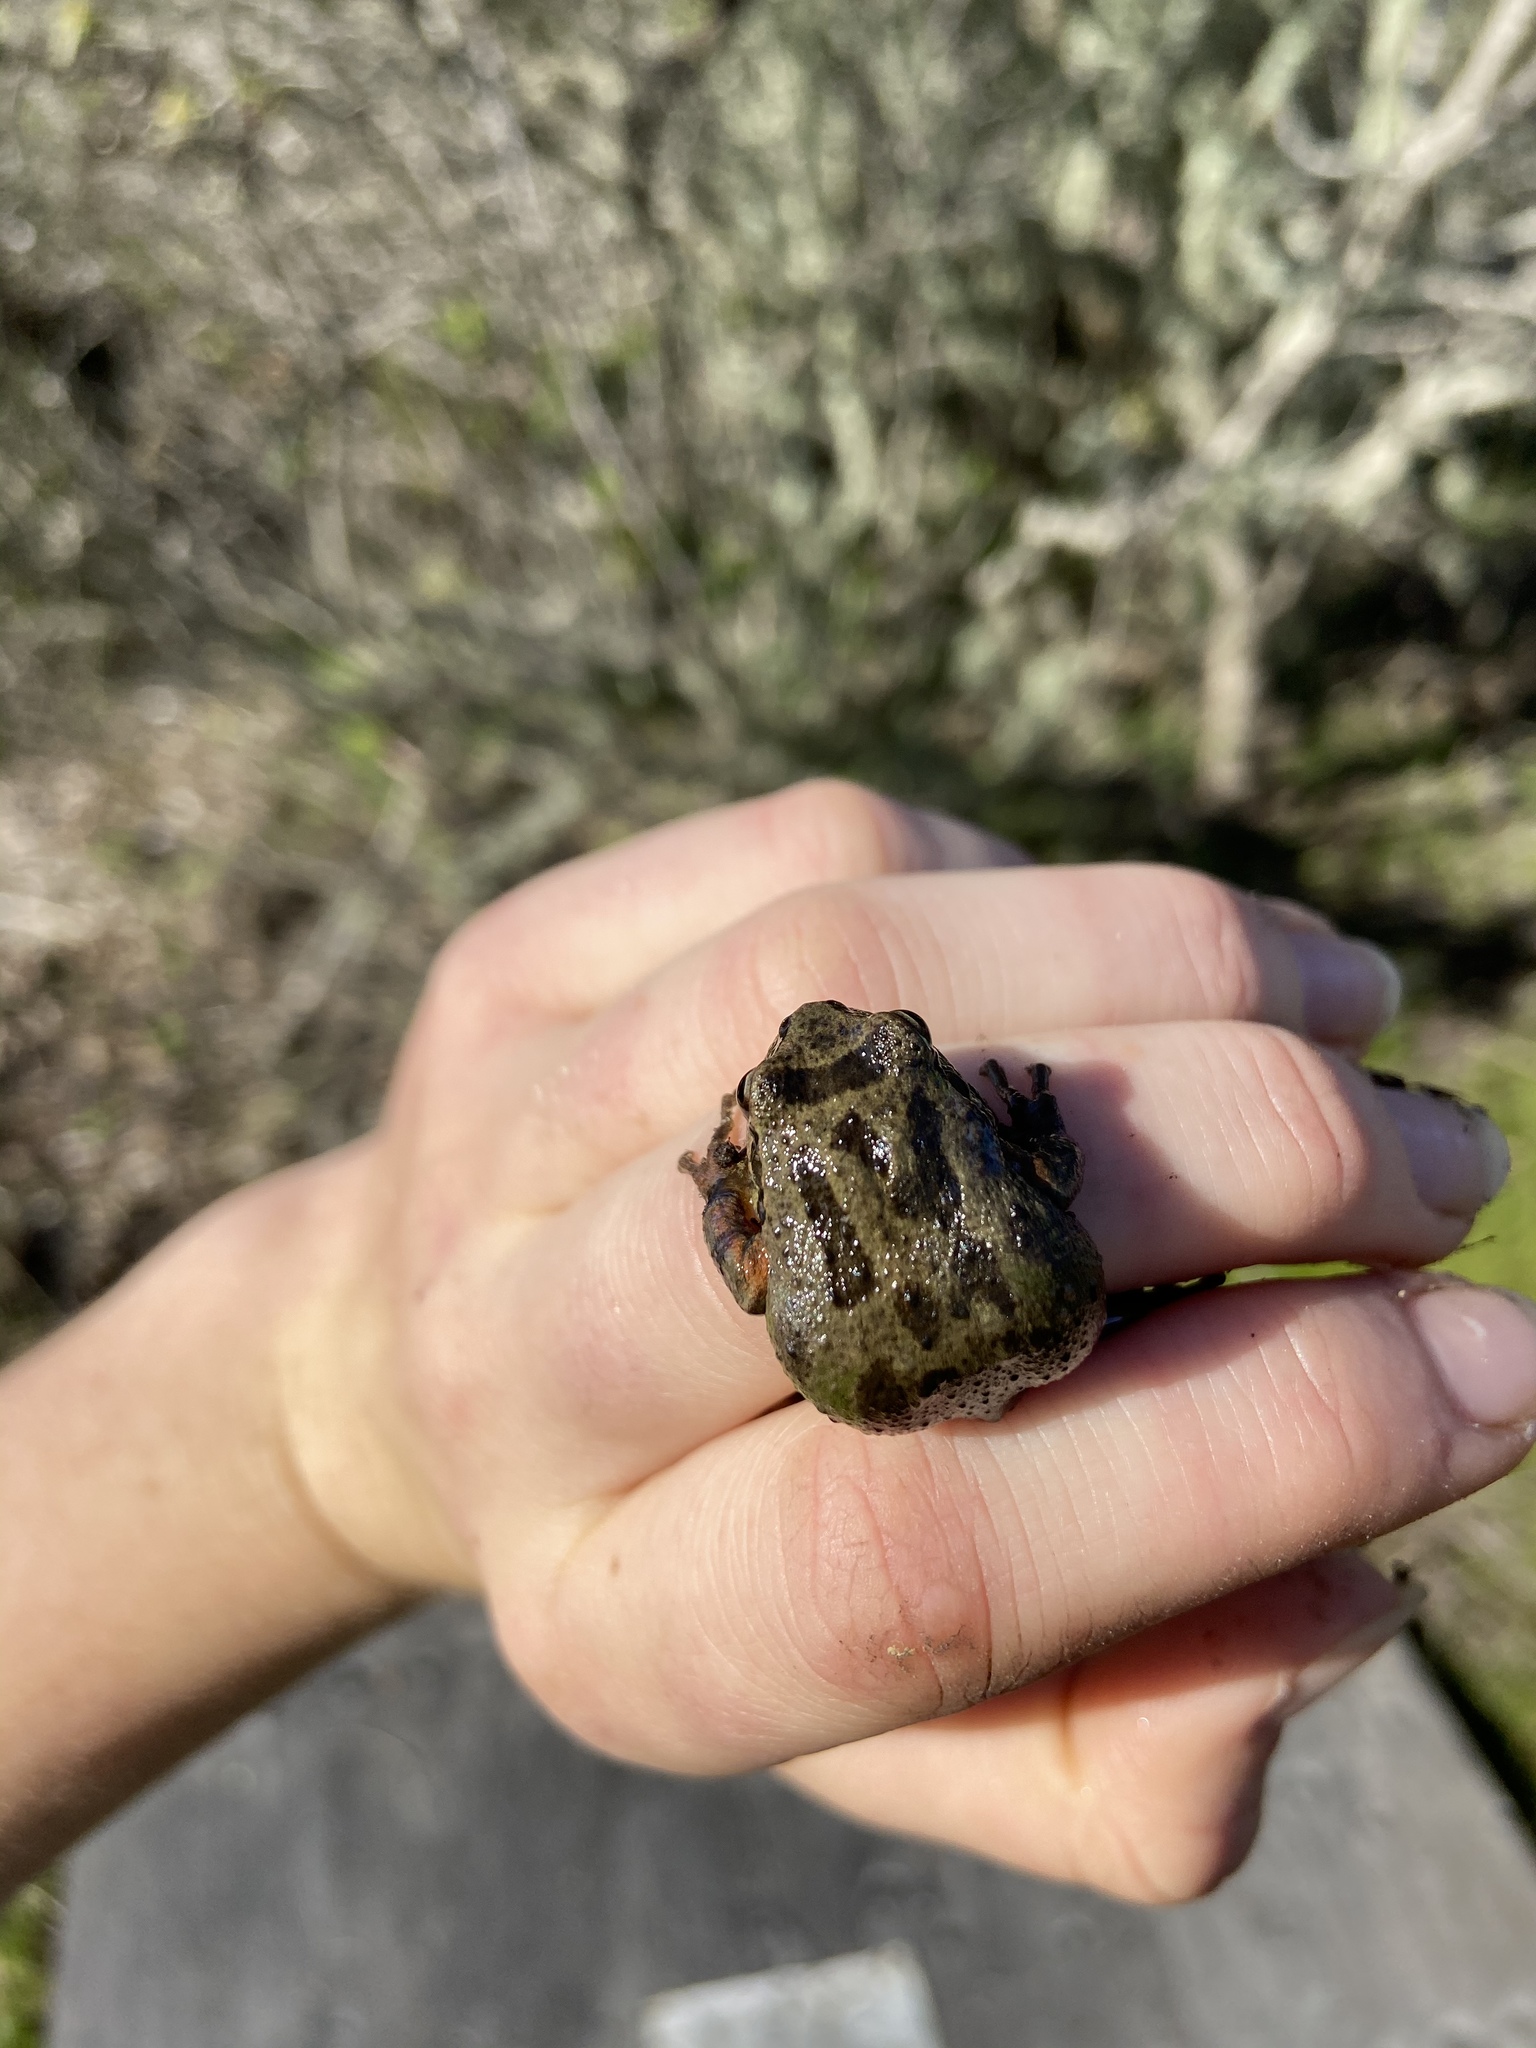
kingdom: Animalia
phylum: Chordata
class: Amphibia
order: Anura
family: Hylidae
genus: Pseudacris
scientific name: Pseudacris regilla
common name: Pacific chorus frog
